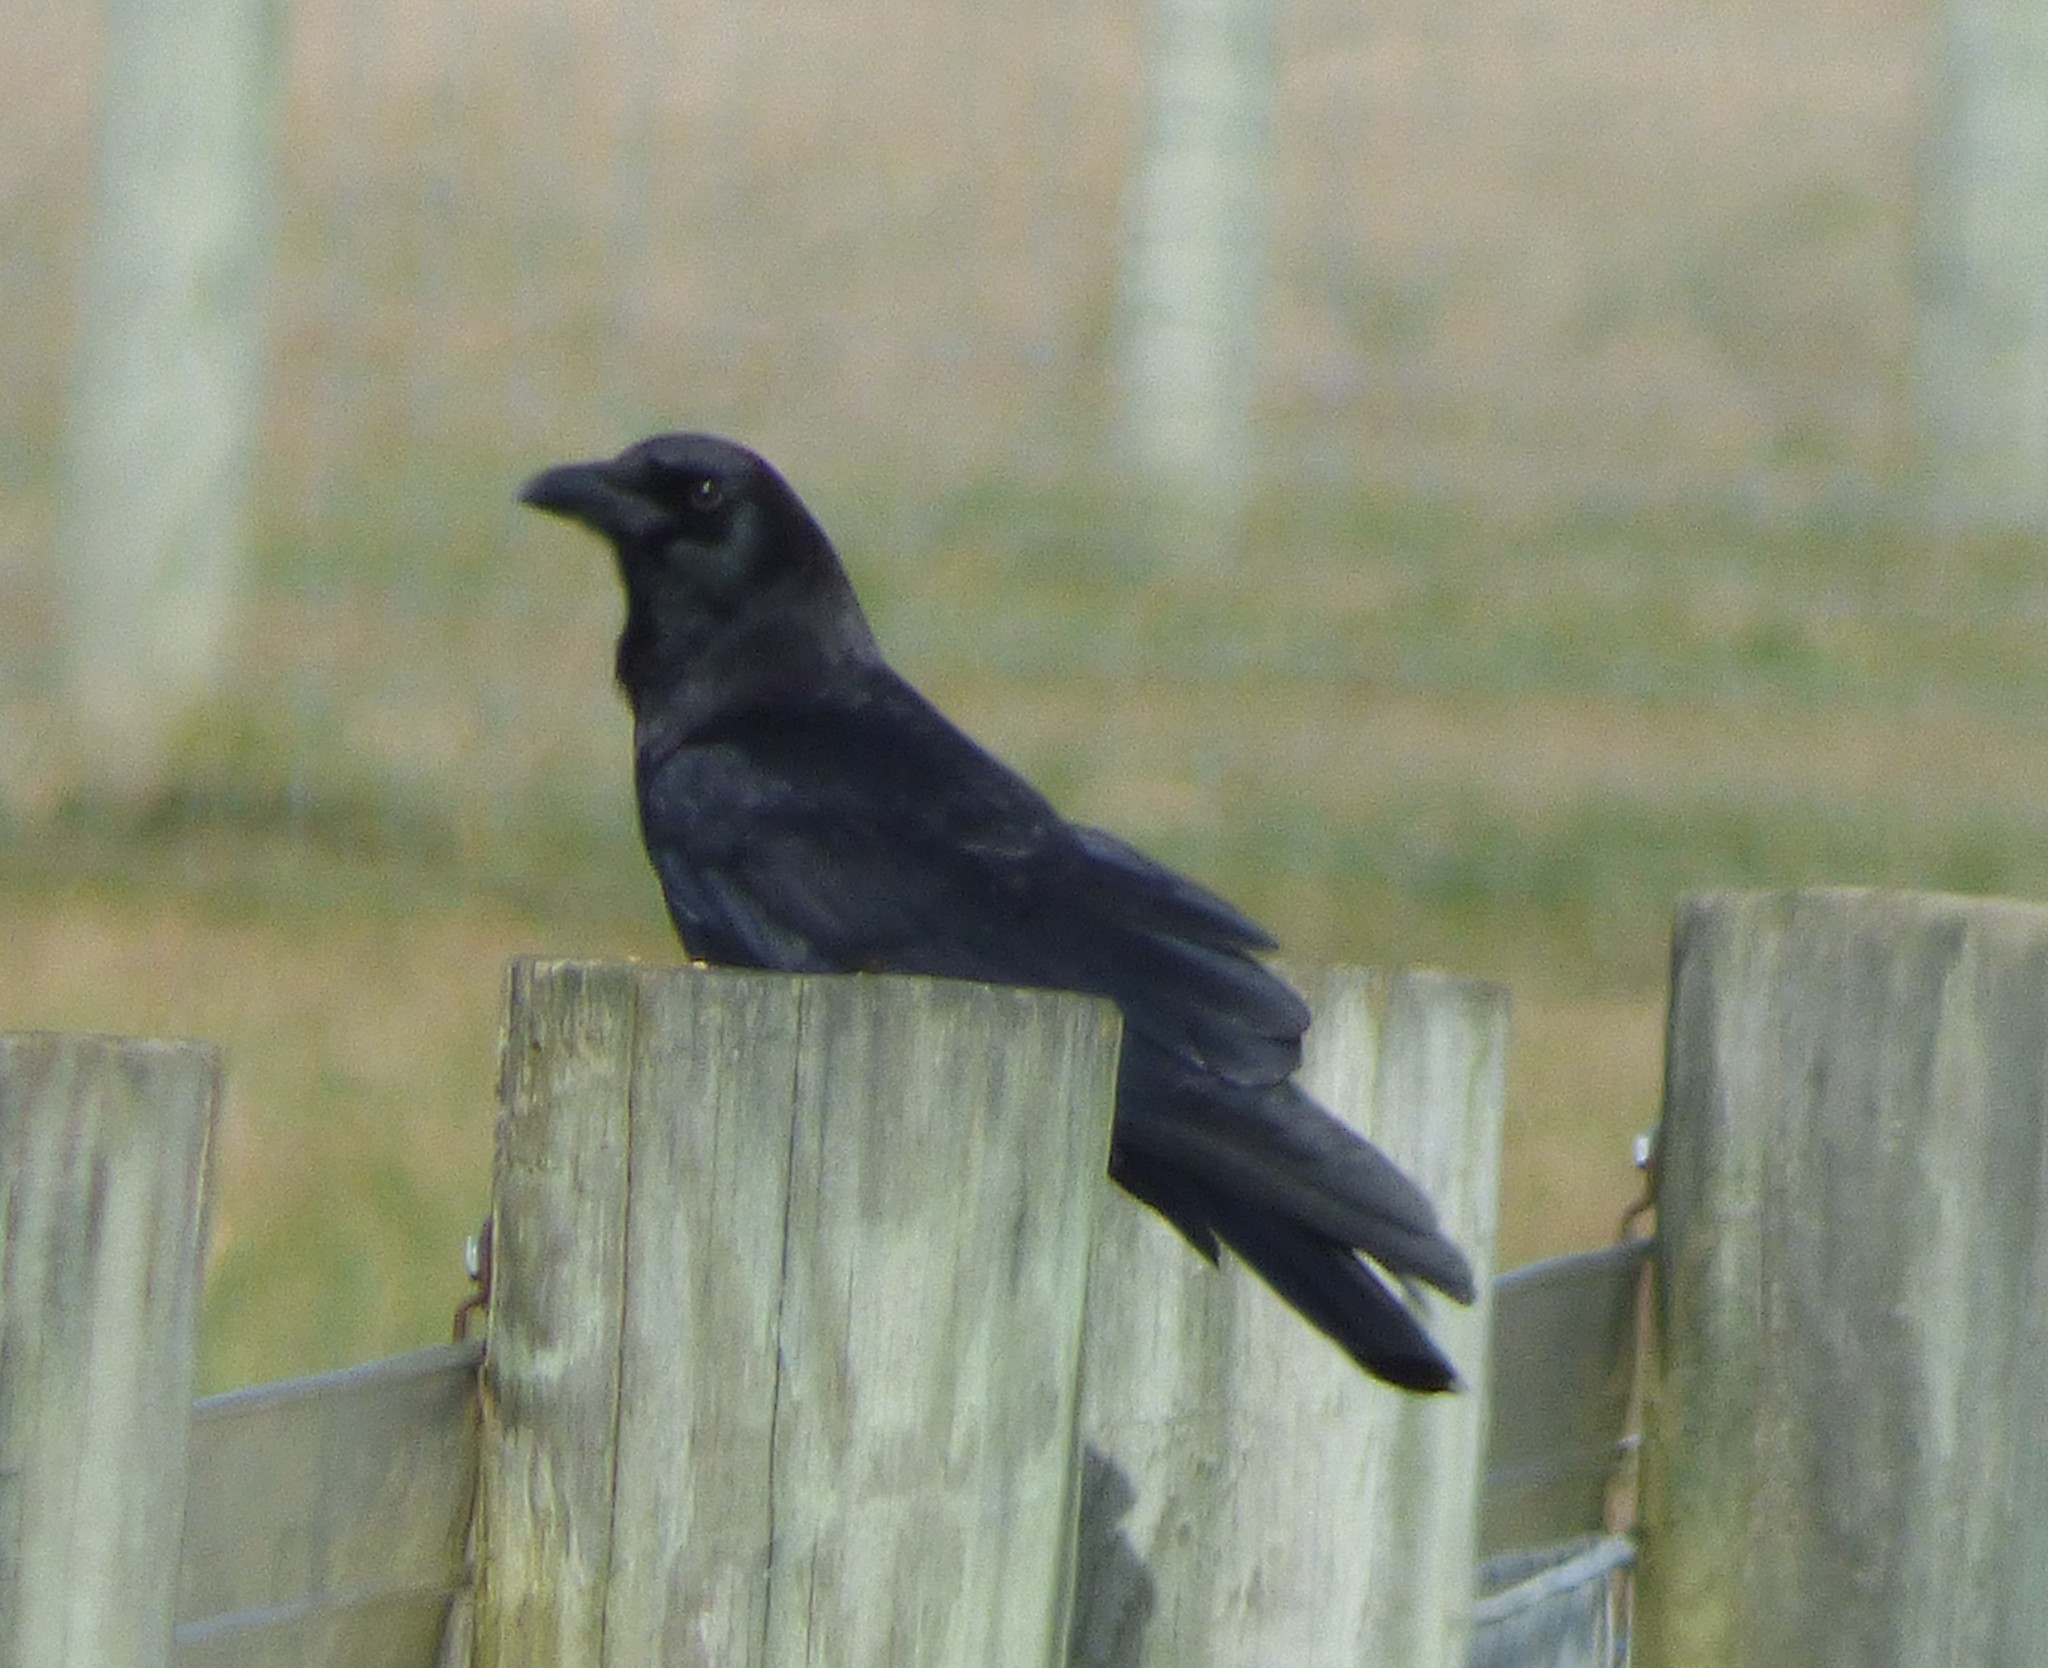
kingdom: Animalia
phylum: Chordata
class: Aves
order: Passeriformes
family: Corvidae
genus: Corvus
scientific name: Corvus brachyrhynchos
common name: American crow
